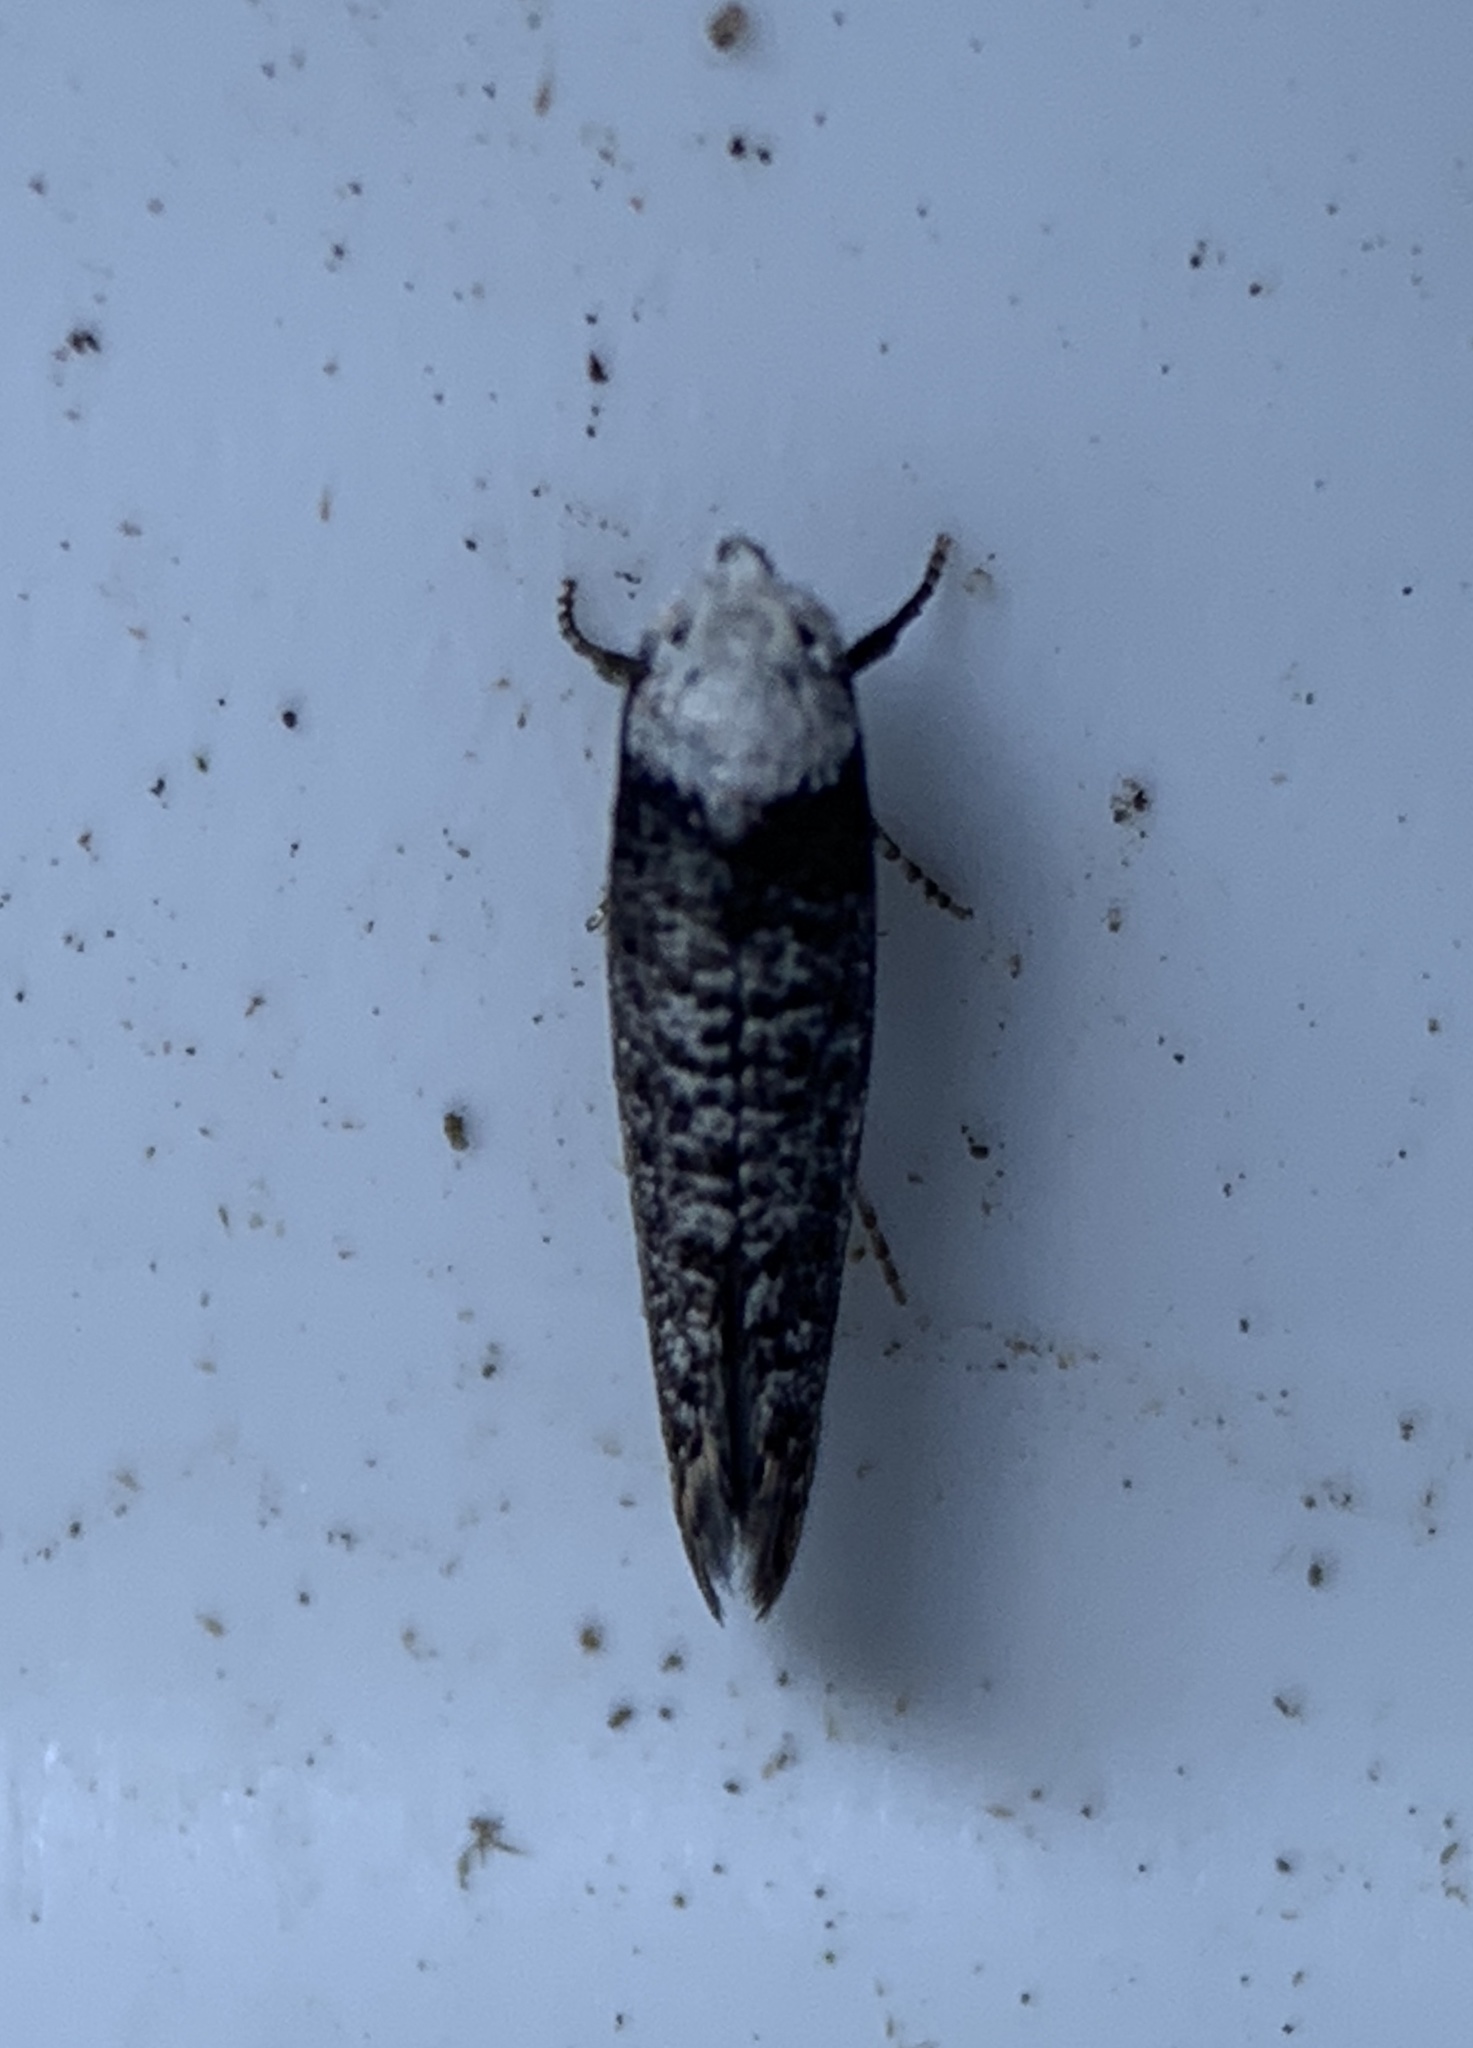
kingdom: Animalia
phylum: Arthropoda
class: Insecta
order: Lepidoptera
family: Yponomeutidae
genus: Swammerdamia
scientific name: Swammerdamia
